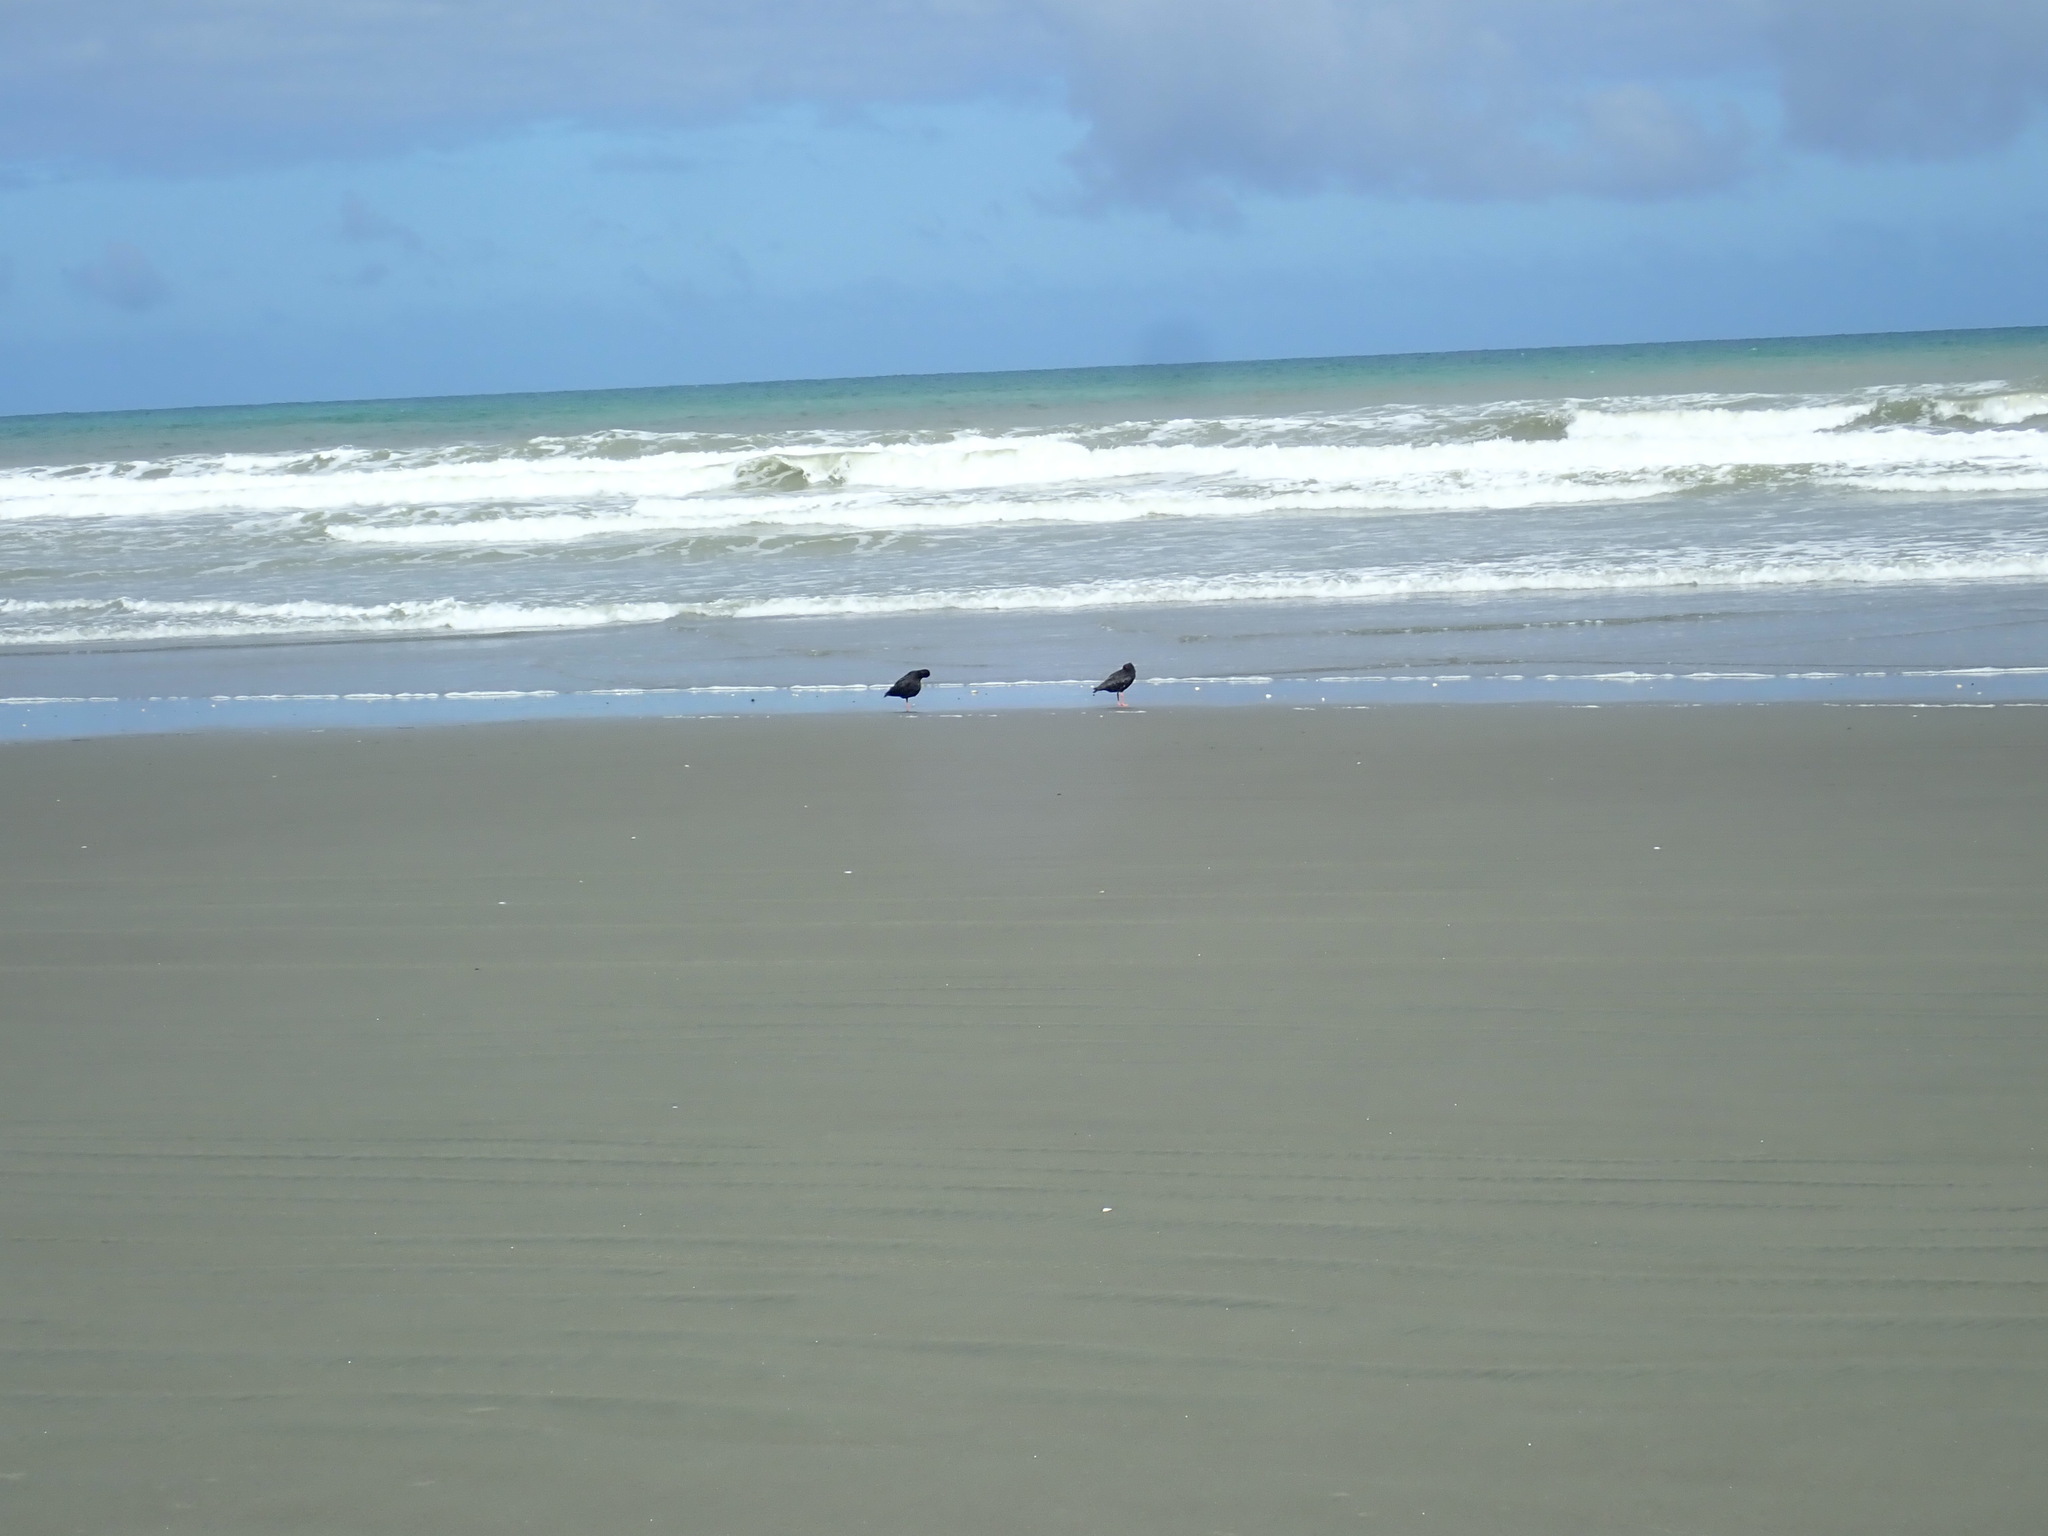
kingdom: Animalia
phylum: Chordata
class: Aves
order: Charadriiformes
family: Haematopodidae
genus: Haematopus
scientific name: Haematopus unicolor
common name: Variable oystercatcher
